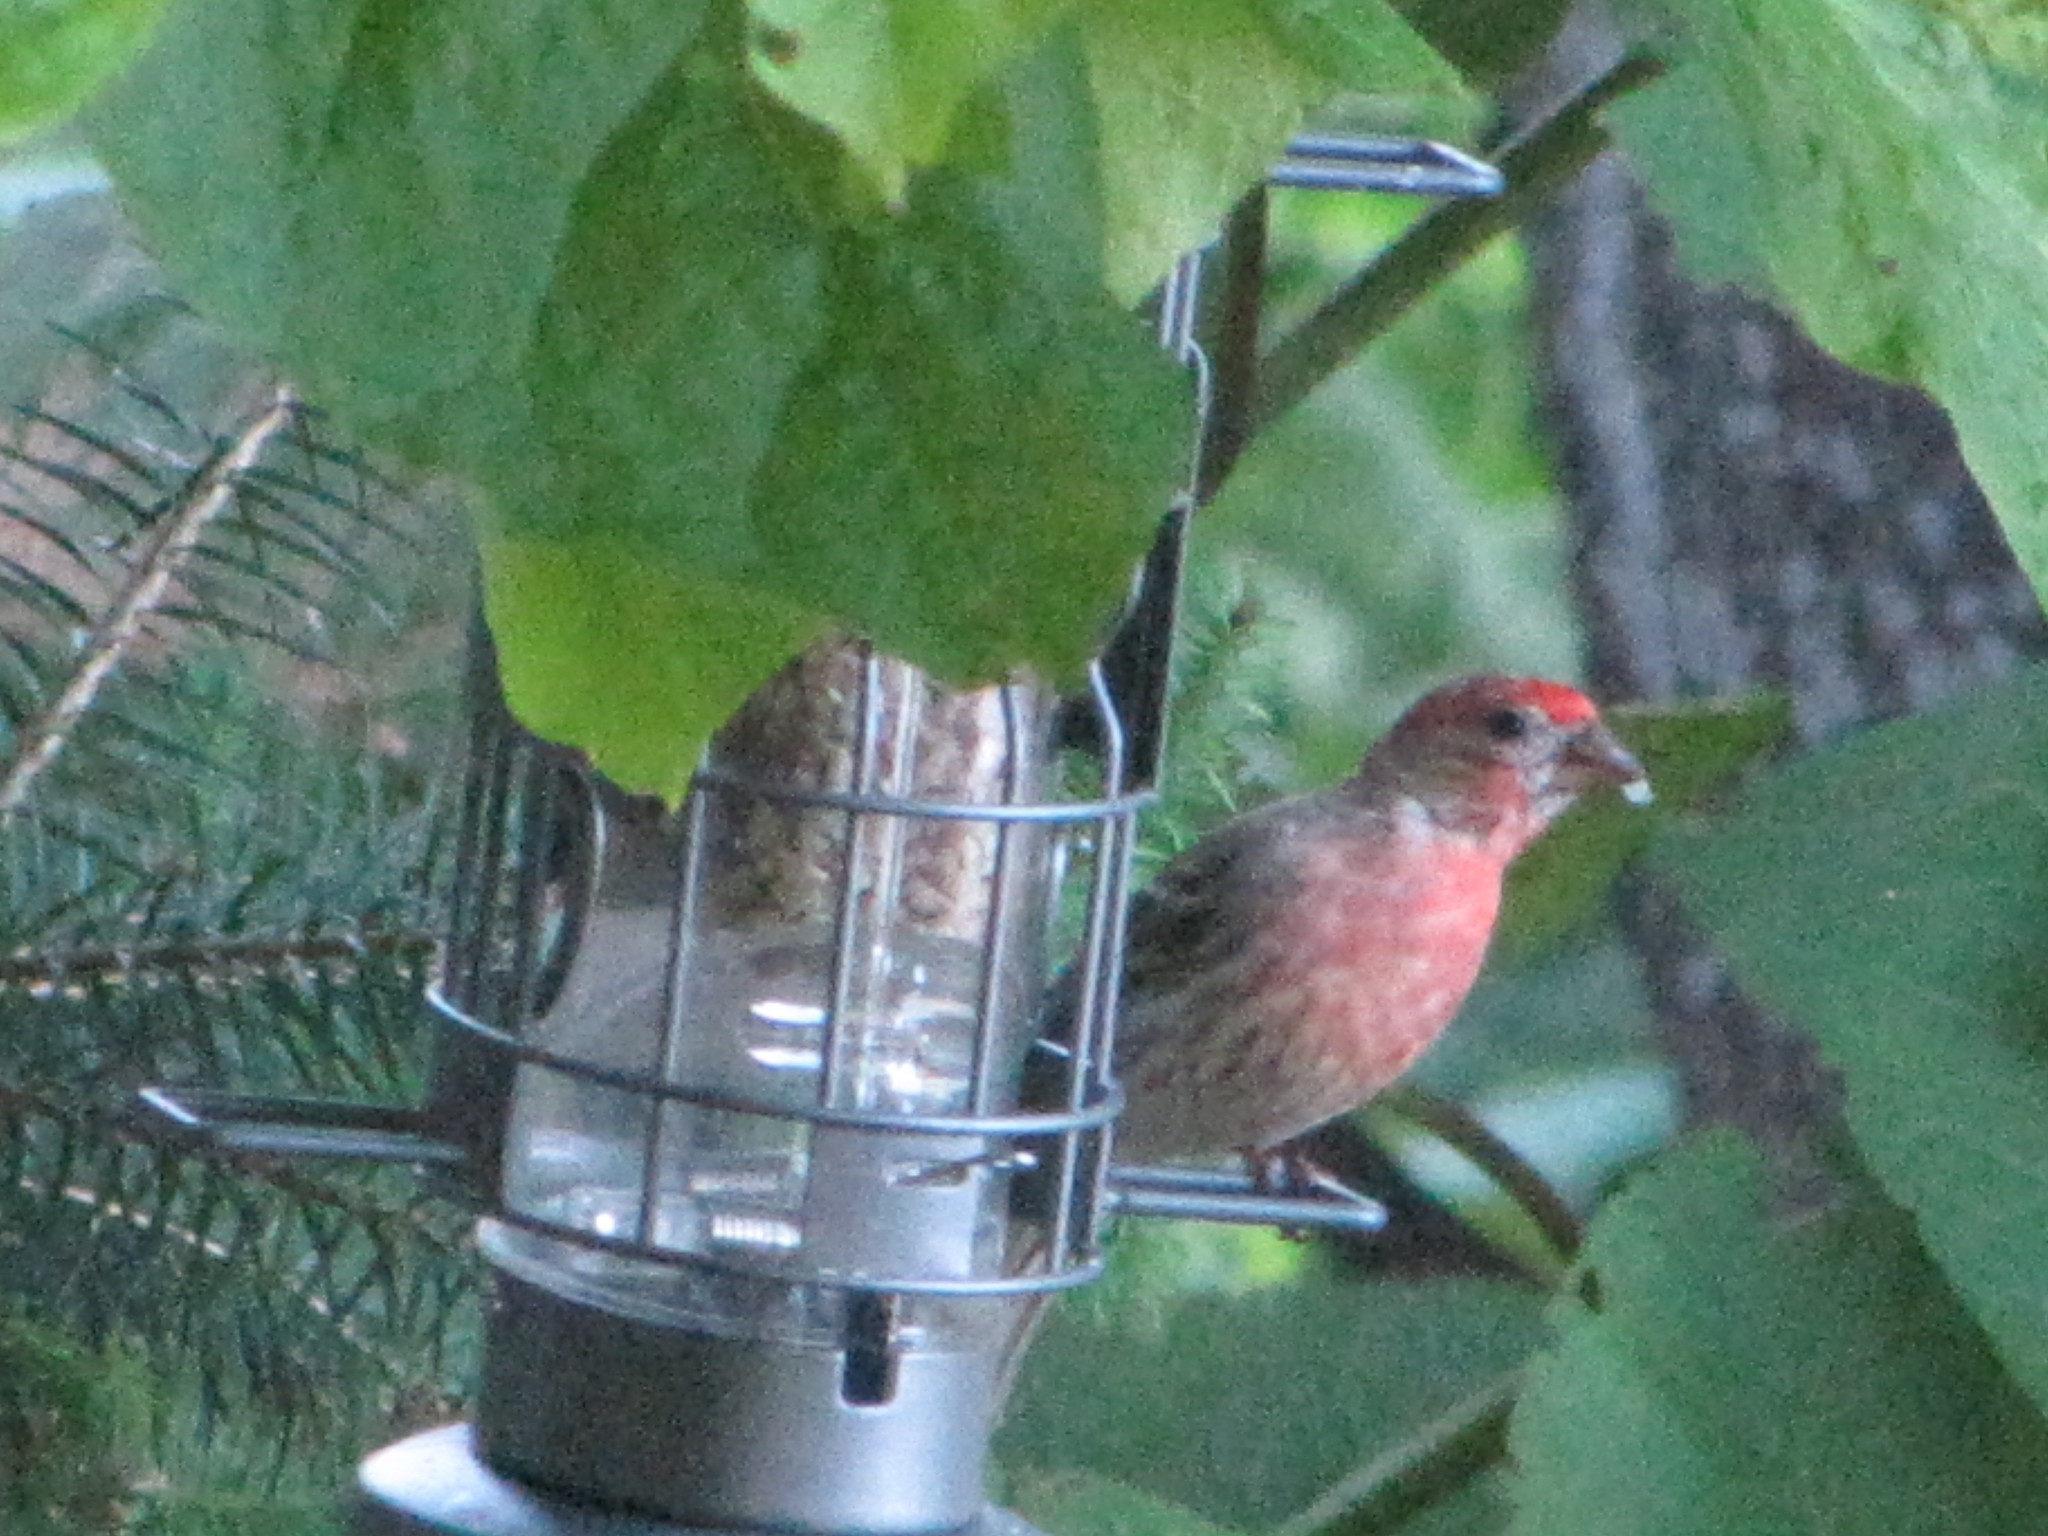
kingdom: Animalia
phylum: Chordata
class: Aves
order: Passeriformes
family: Fringillidae
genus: Haemorhous
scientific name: Haemorhous mexicanus
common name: House finch
